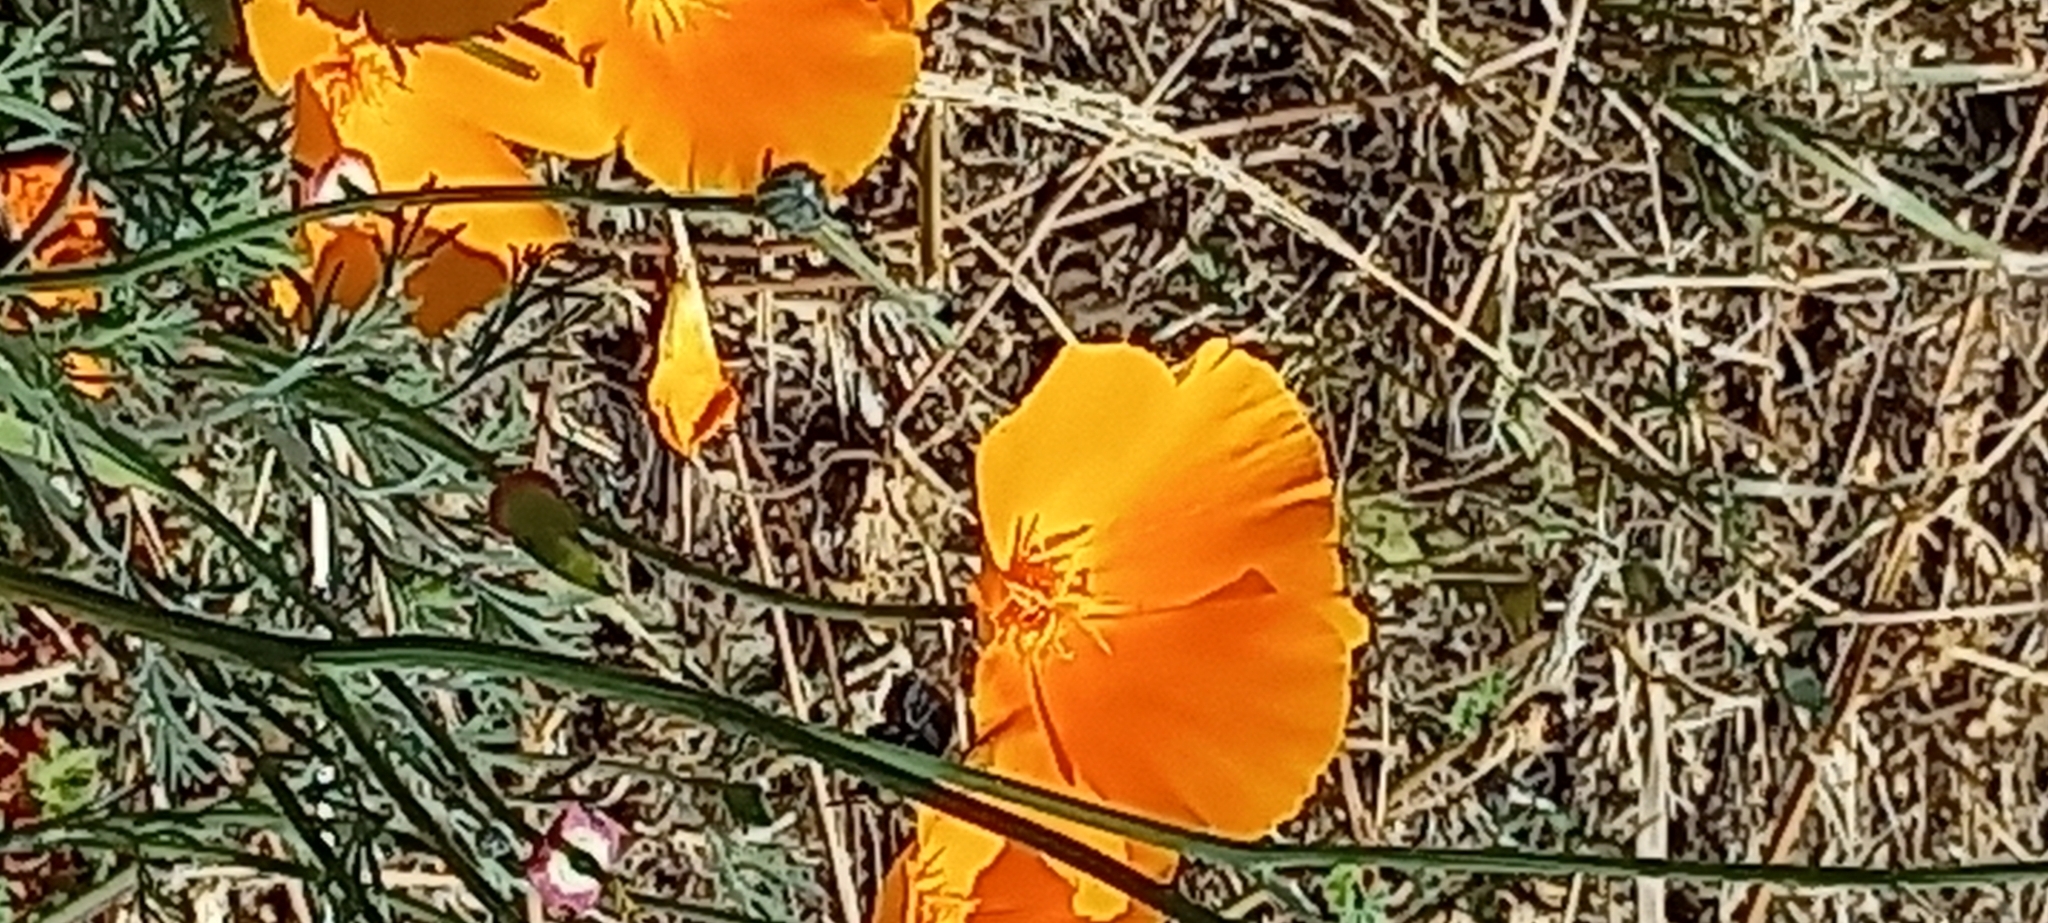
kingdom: Plantae
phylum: Tracheophyta
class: Magnoliopsida
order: Ranunculales
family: Papaveraceae
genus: Eschscholzia
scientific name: Eschscholzia californica
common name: California poppy
